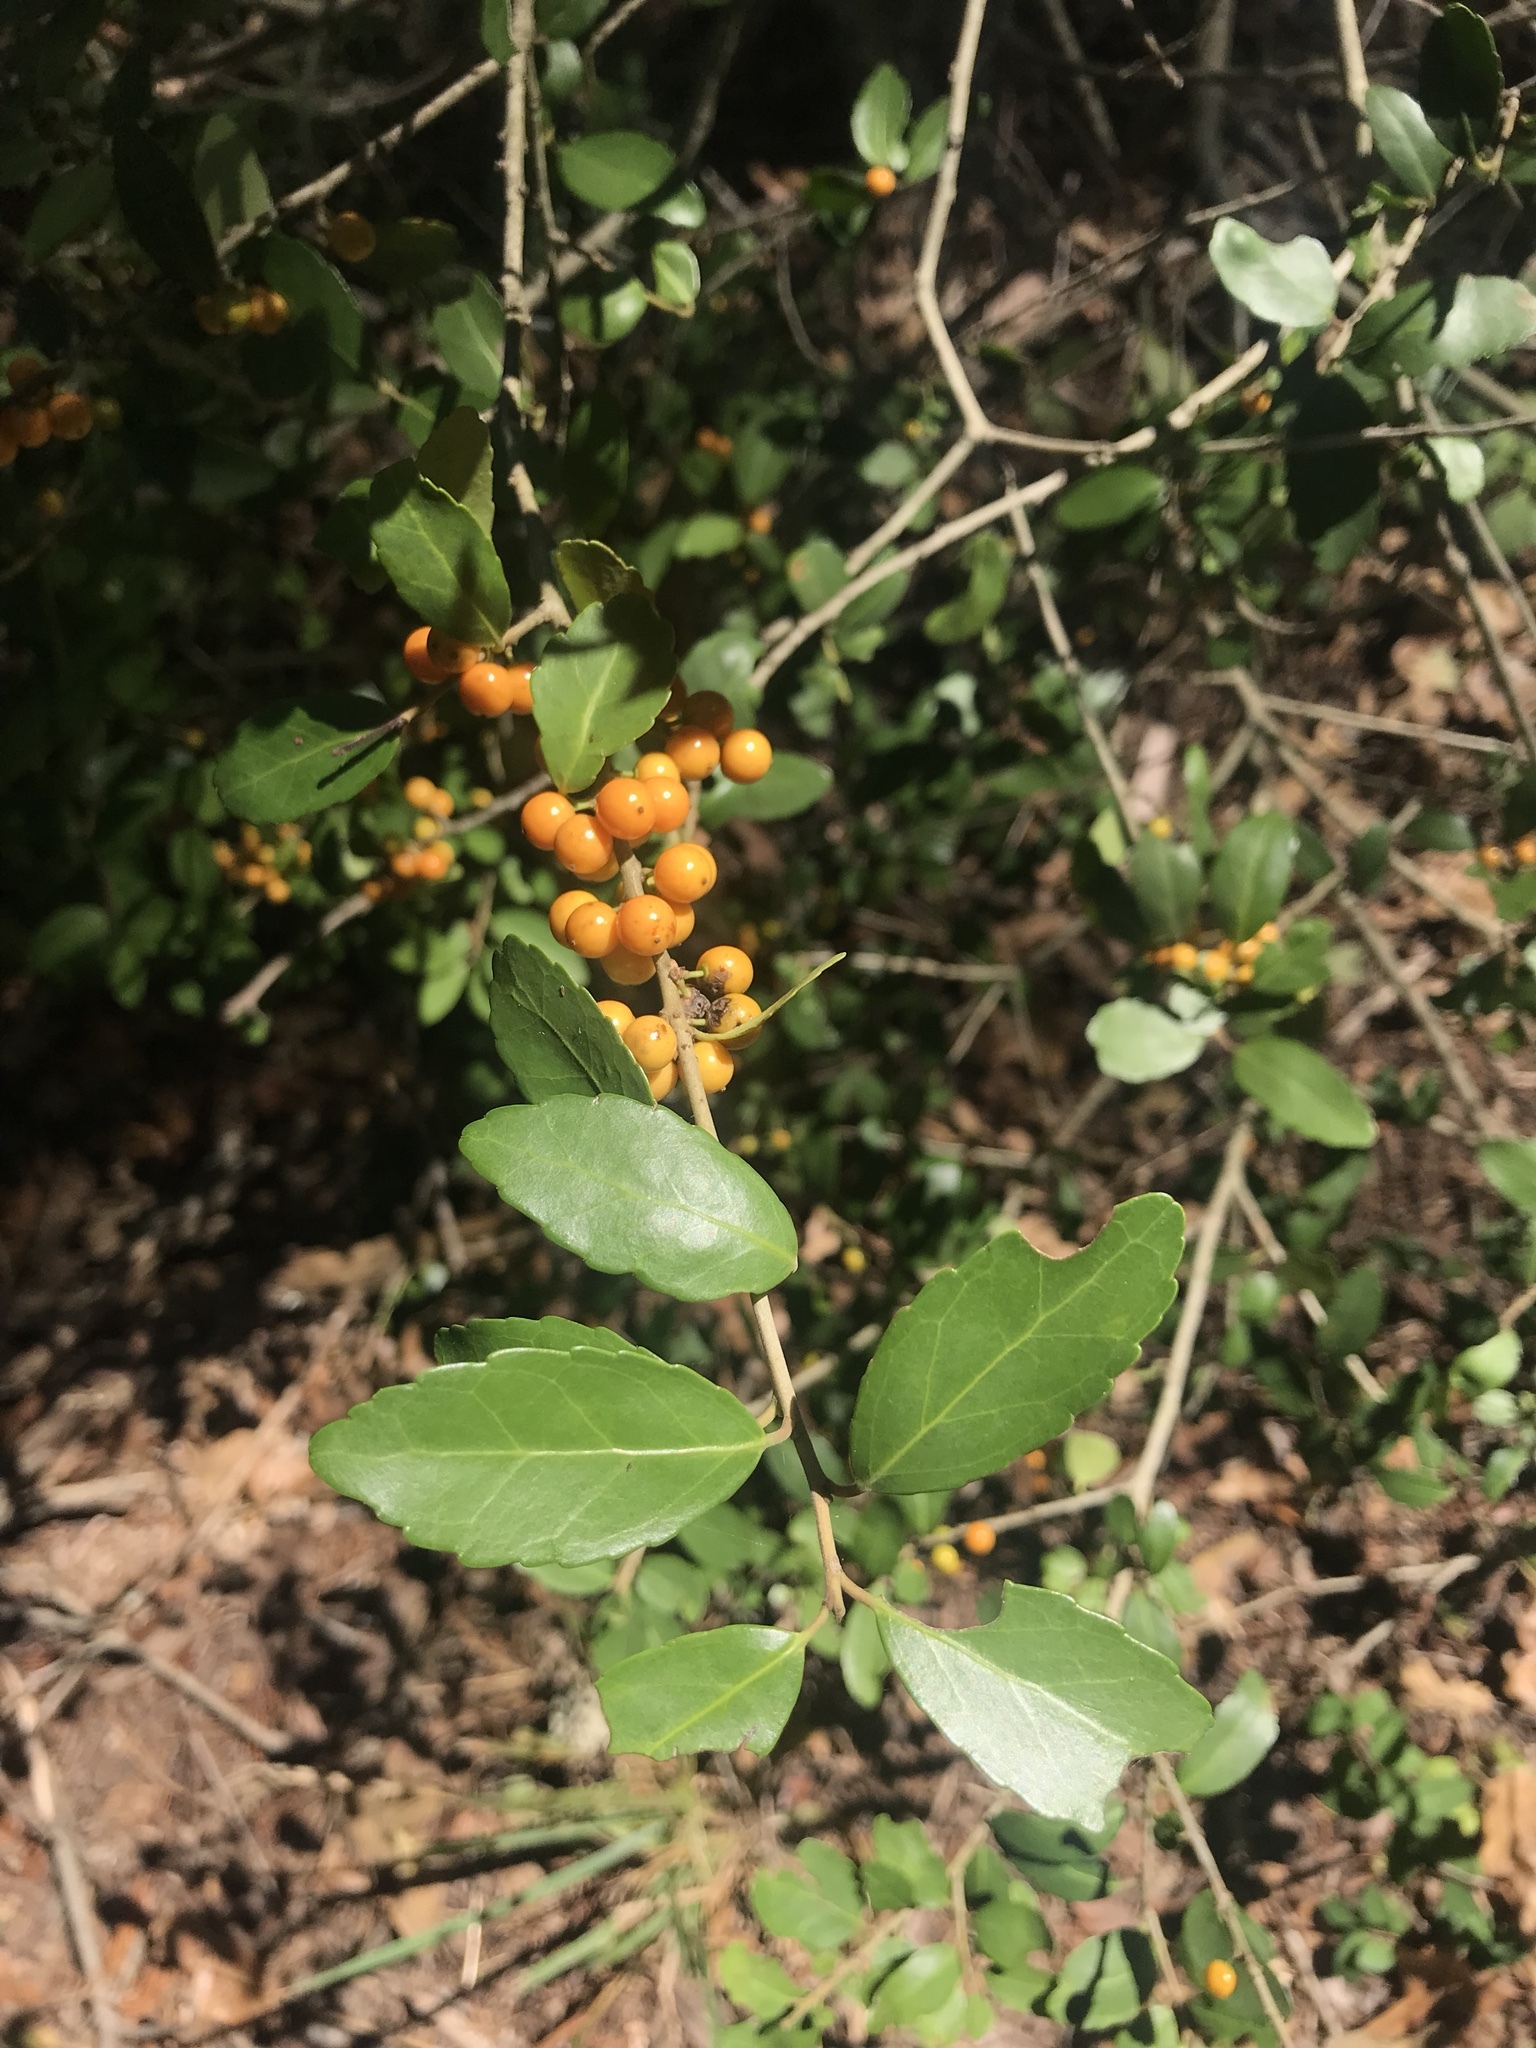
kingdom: Plantae
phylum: Tracheophyta
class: Magnoliopsida
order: Aquifoliales
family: Aquifoliaceae
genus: Ilex
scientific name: Ilex vomitoria
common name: Yaupon holly
